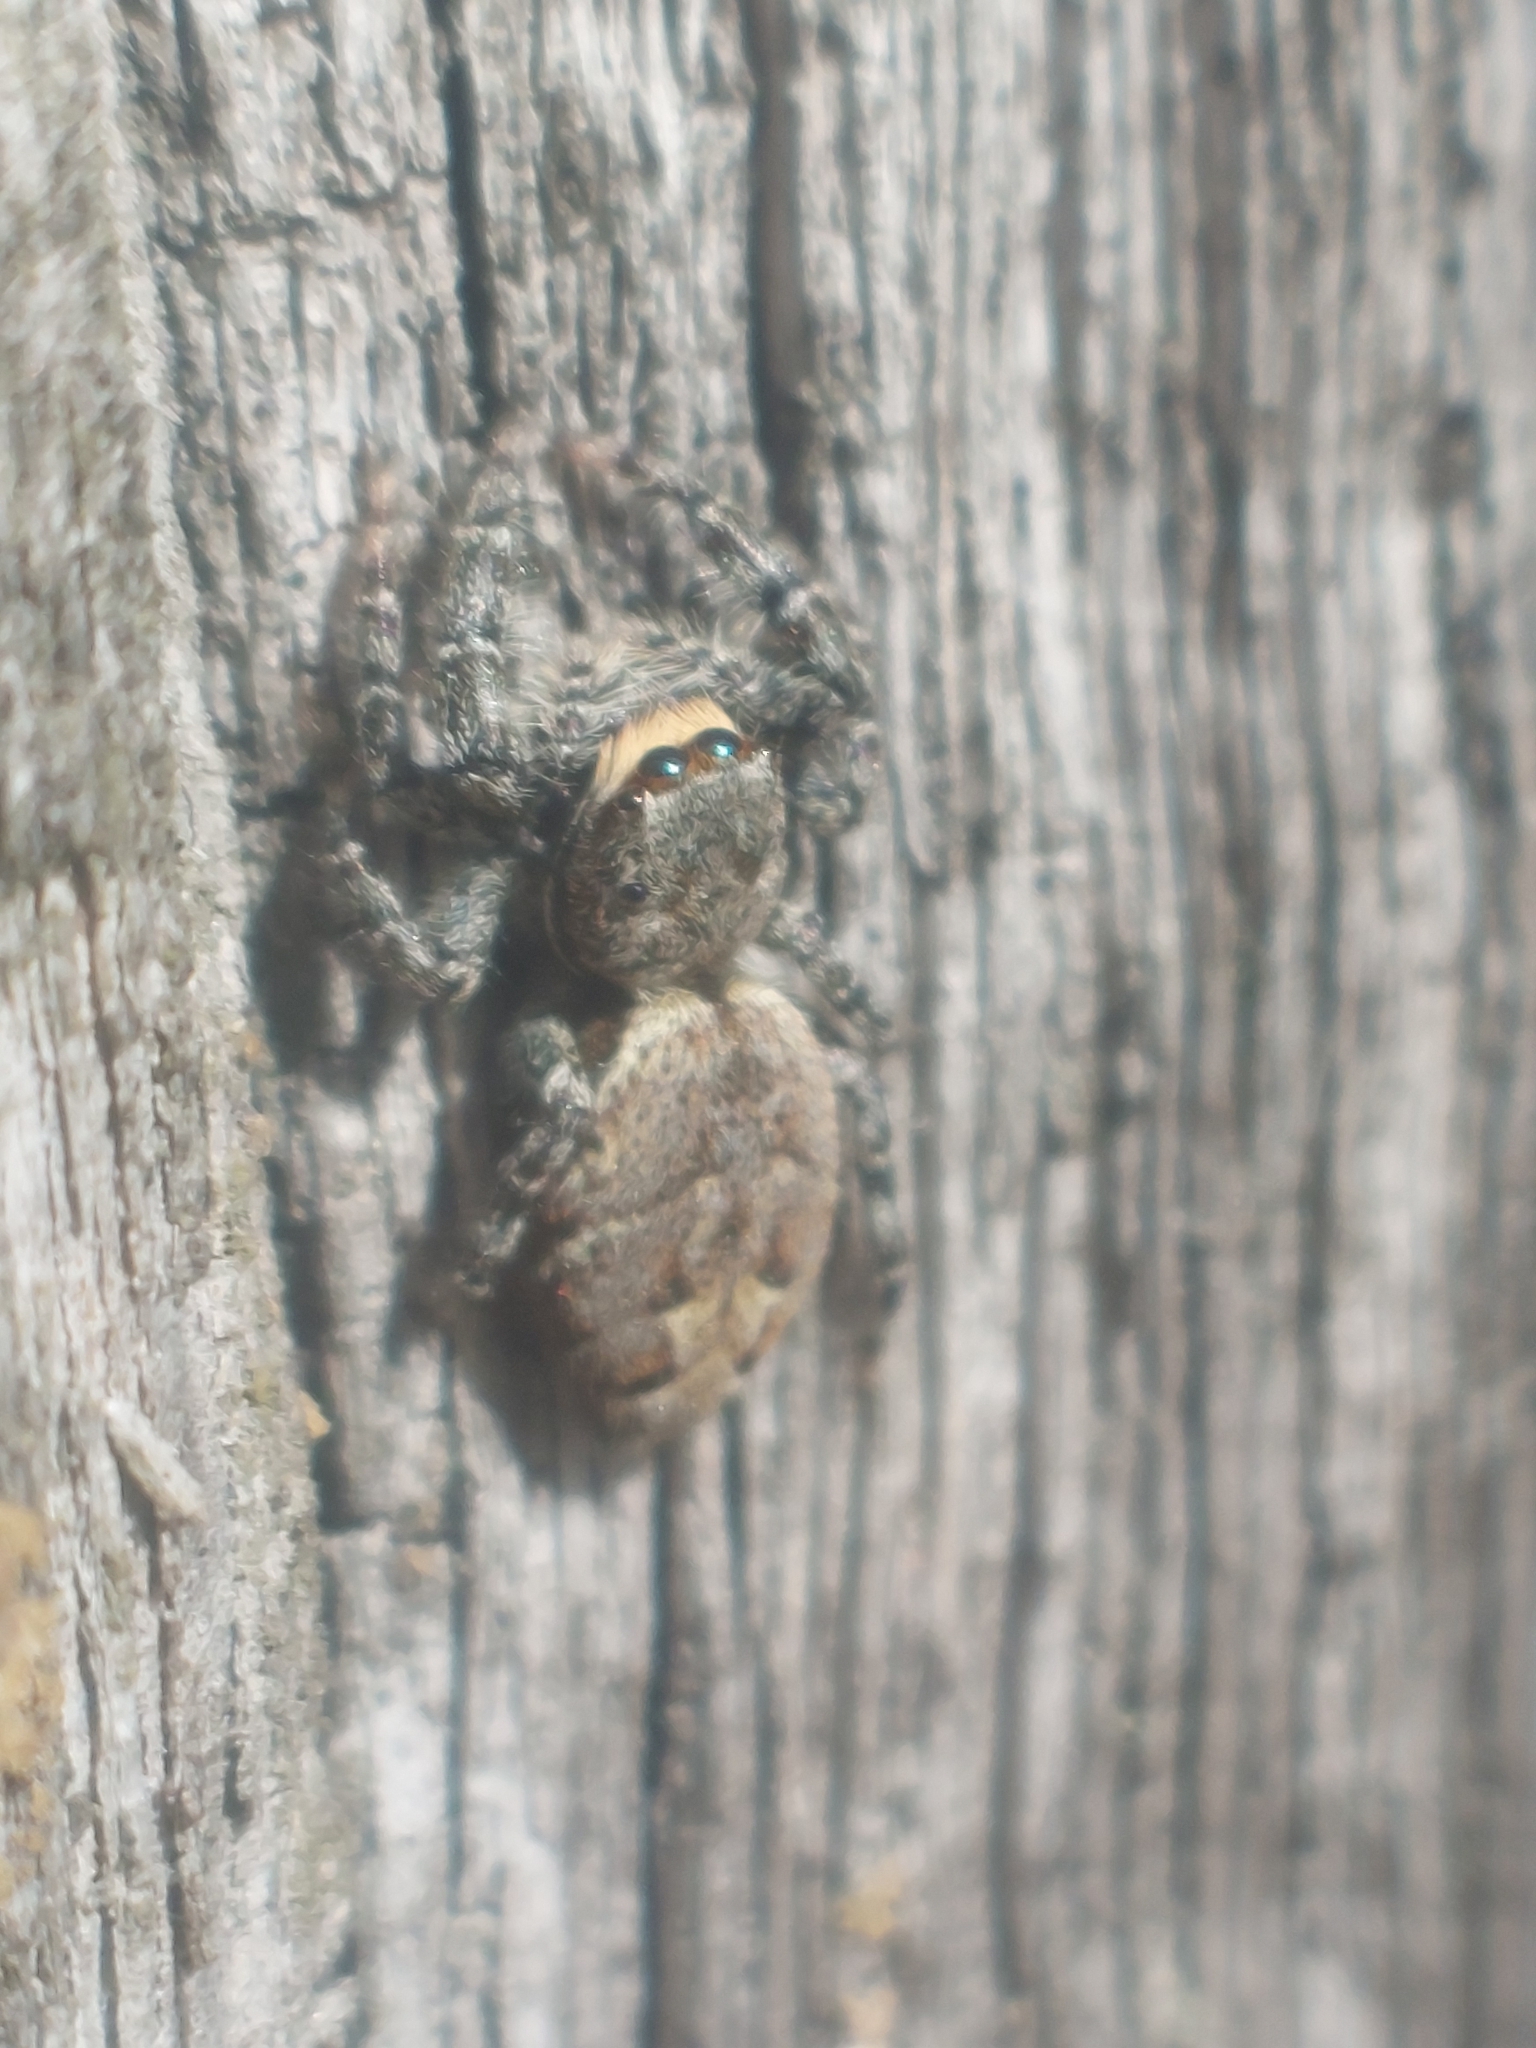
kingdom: Animalia
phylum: Arthropoda
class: Arachnida
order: Araneae
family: Salticidae
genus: Marpissa
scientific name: Marpissa muscosa
